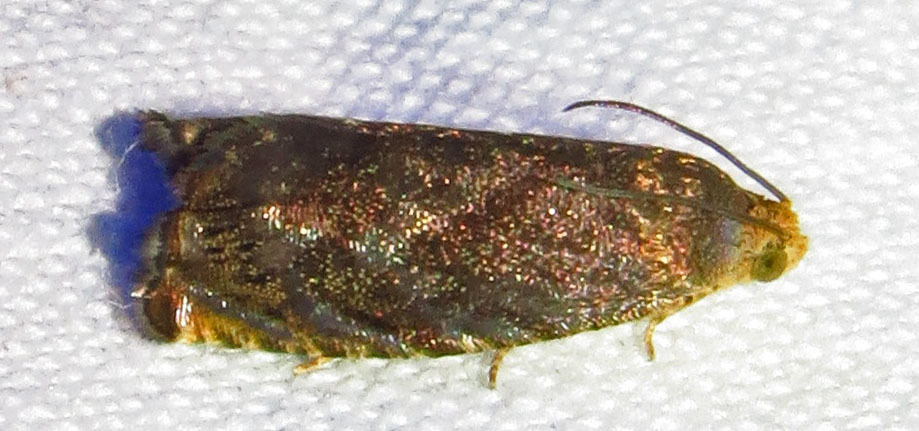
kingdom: Animalia
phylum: Arthropoda
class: Insecta
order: Lepidoptera
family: Tortricidae
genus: Cydia
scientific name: Cydia caryana
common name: Hickory shuckworm moth
